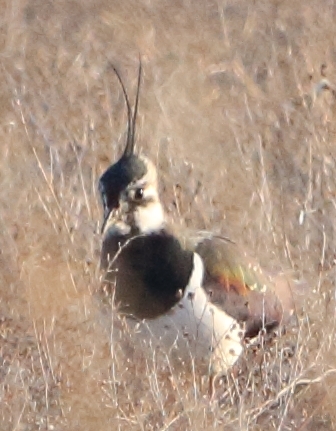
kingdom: Animalia
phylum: Chordata
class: Aves
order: Charadriiformes
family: Charadriidae
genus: Vanellus
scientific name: Vanellus vanellus
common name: Northern lapwing
